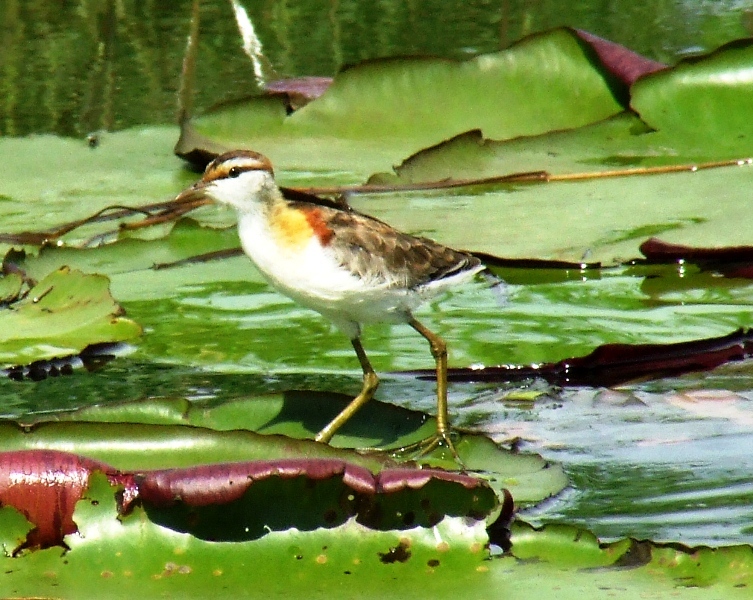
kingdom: Animalia
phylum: Chordata
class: Aves
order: Charadriiformes
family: Jacanidae
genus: Microparra
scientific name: Microparra capensis
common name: Lesser jacana
